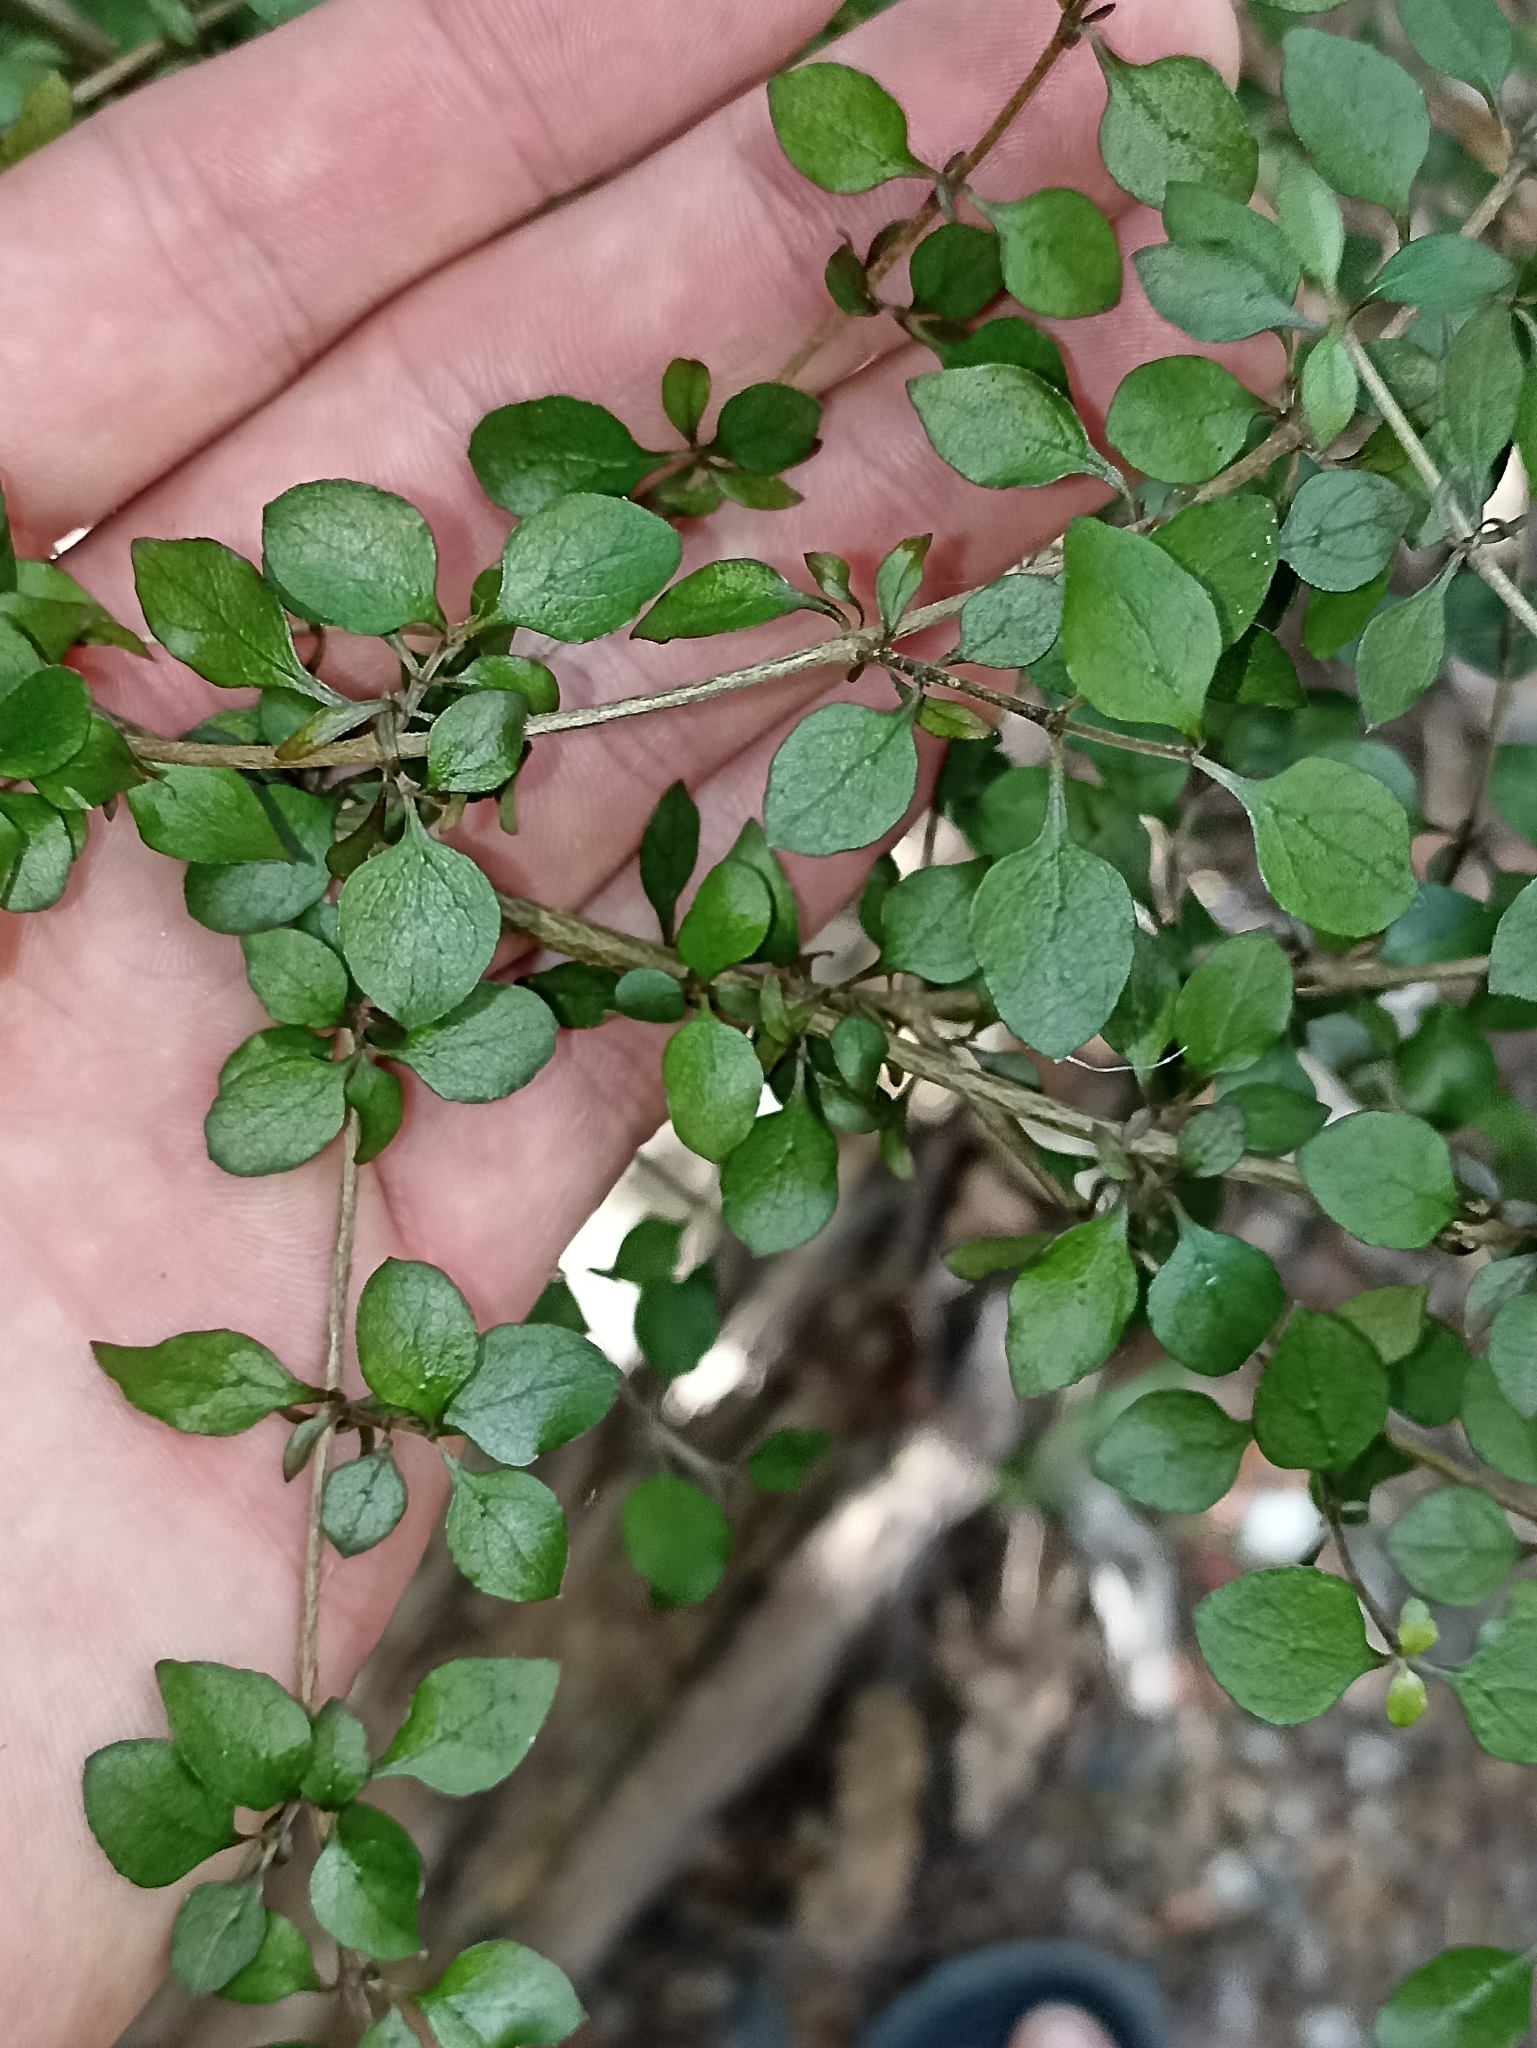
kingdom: Plantae
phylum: Tracheophyta
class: Magnoliopsida
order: Gentianales
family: Rubiaceae
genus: Coprosma
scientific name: Coprosma rhamnoides
